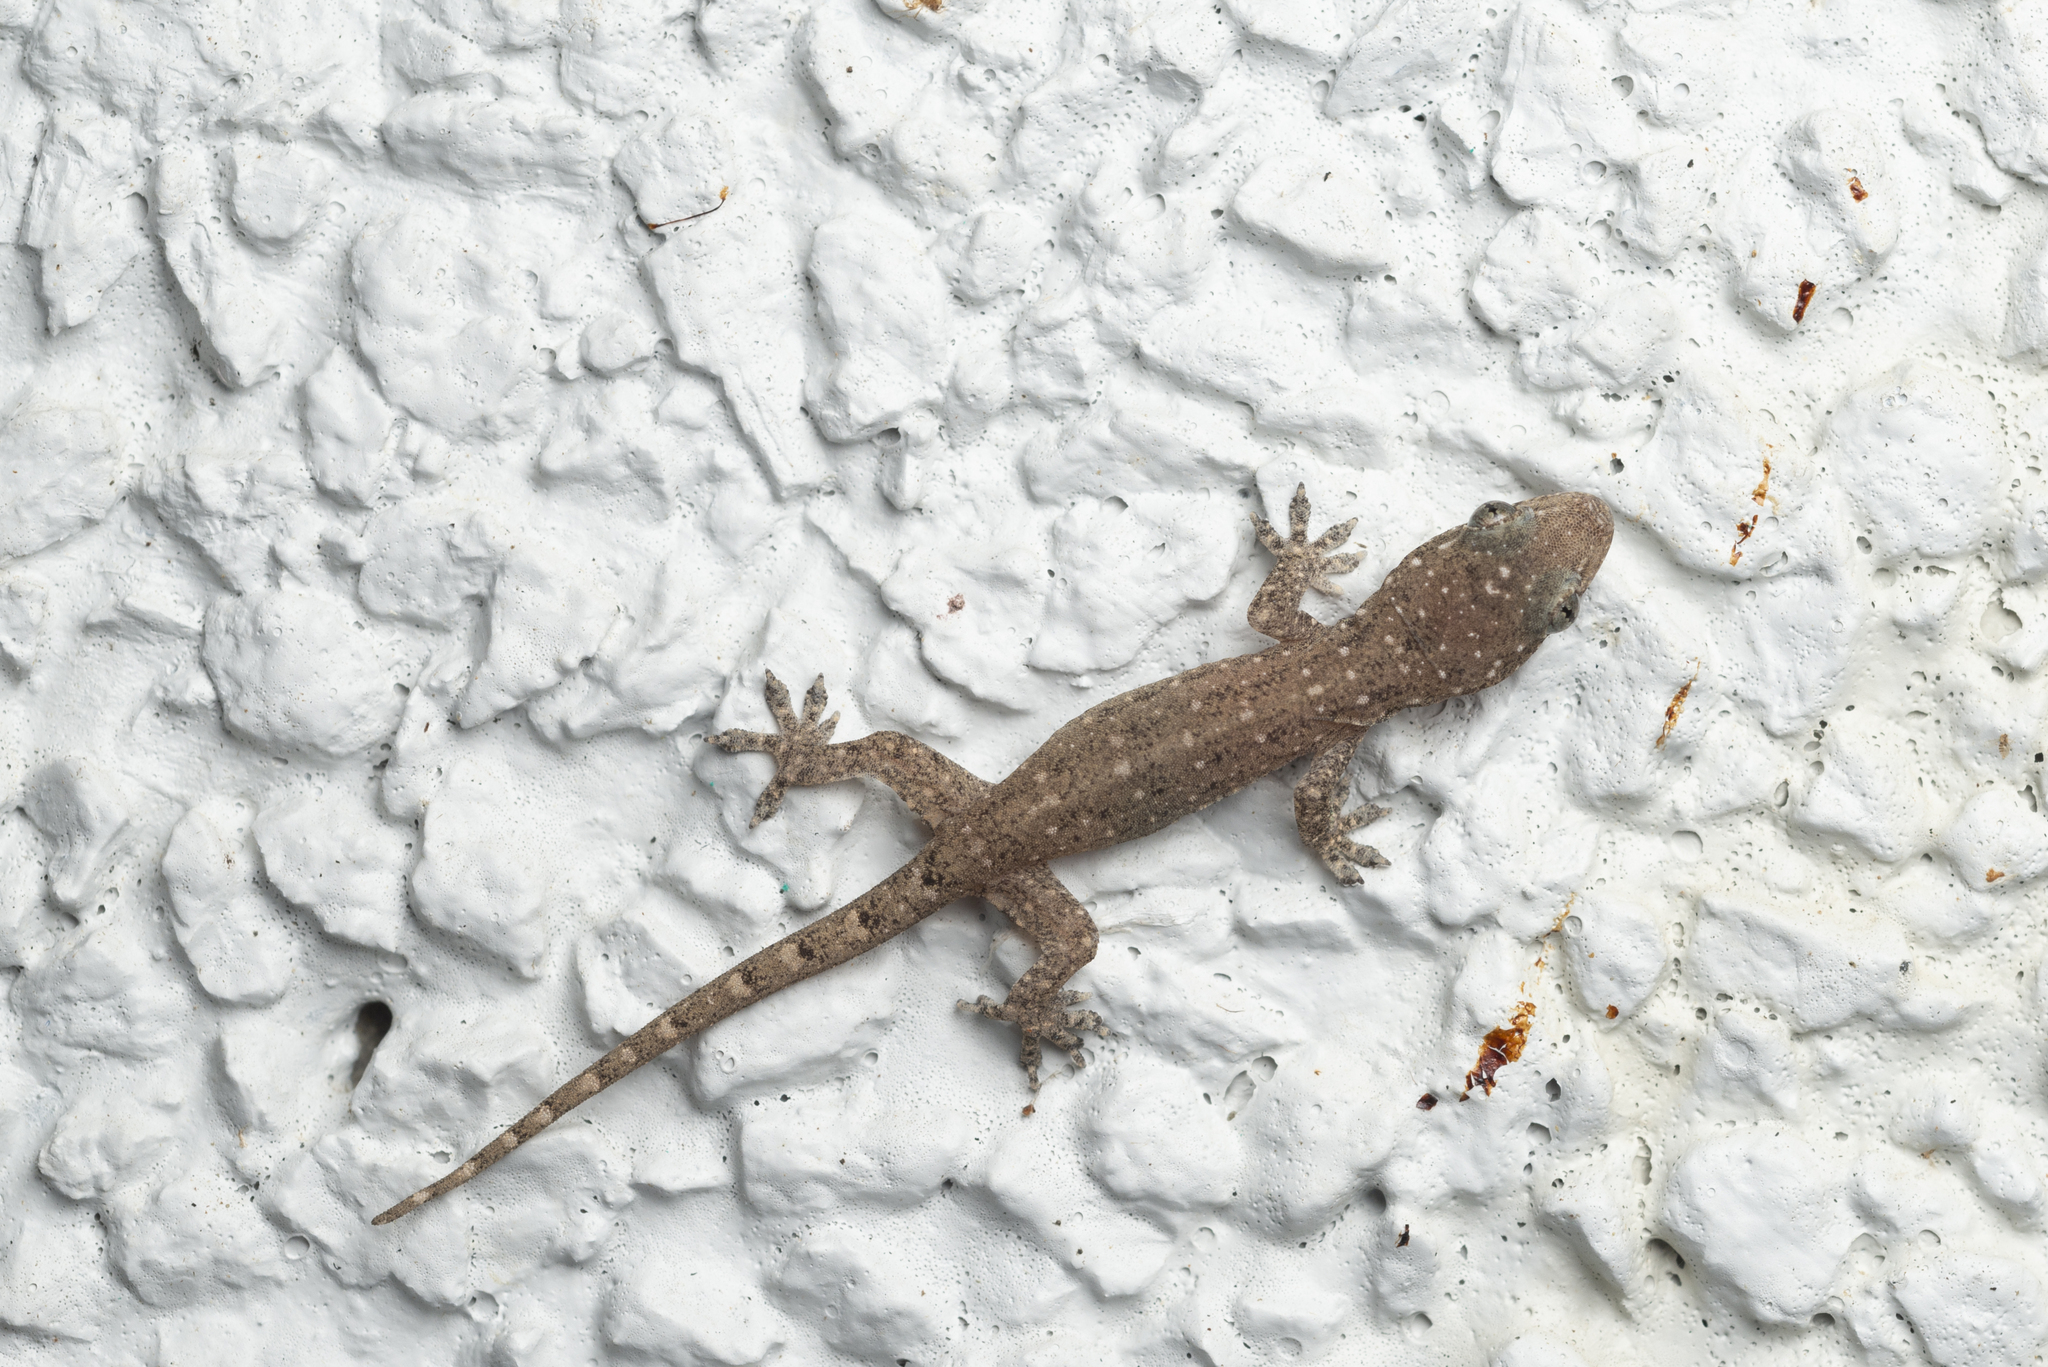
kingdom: Animalia
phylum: Chordata
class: Squamata
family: Gekkonidae
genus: Hemidactylus
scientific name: Hemidactylus bowringii
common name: Oriental leaf-toed gecko
